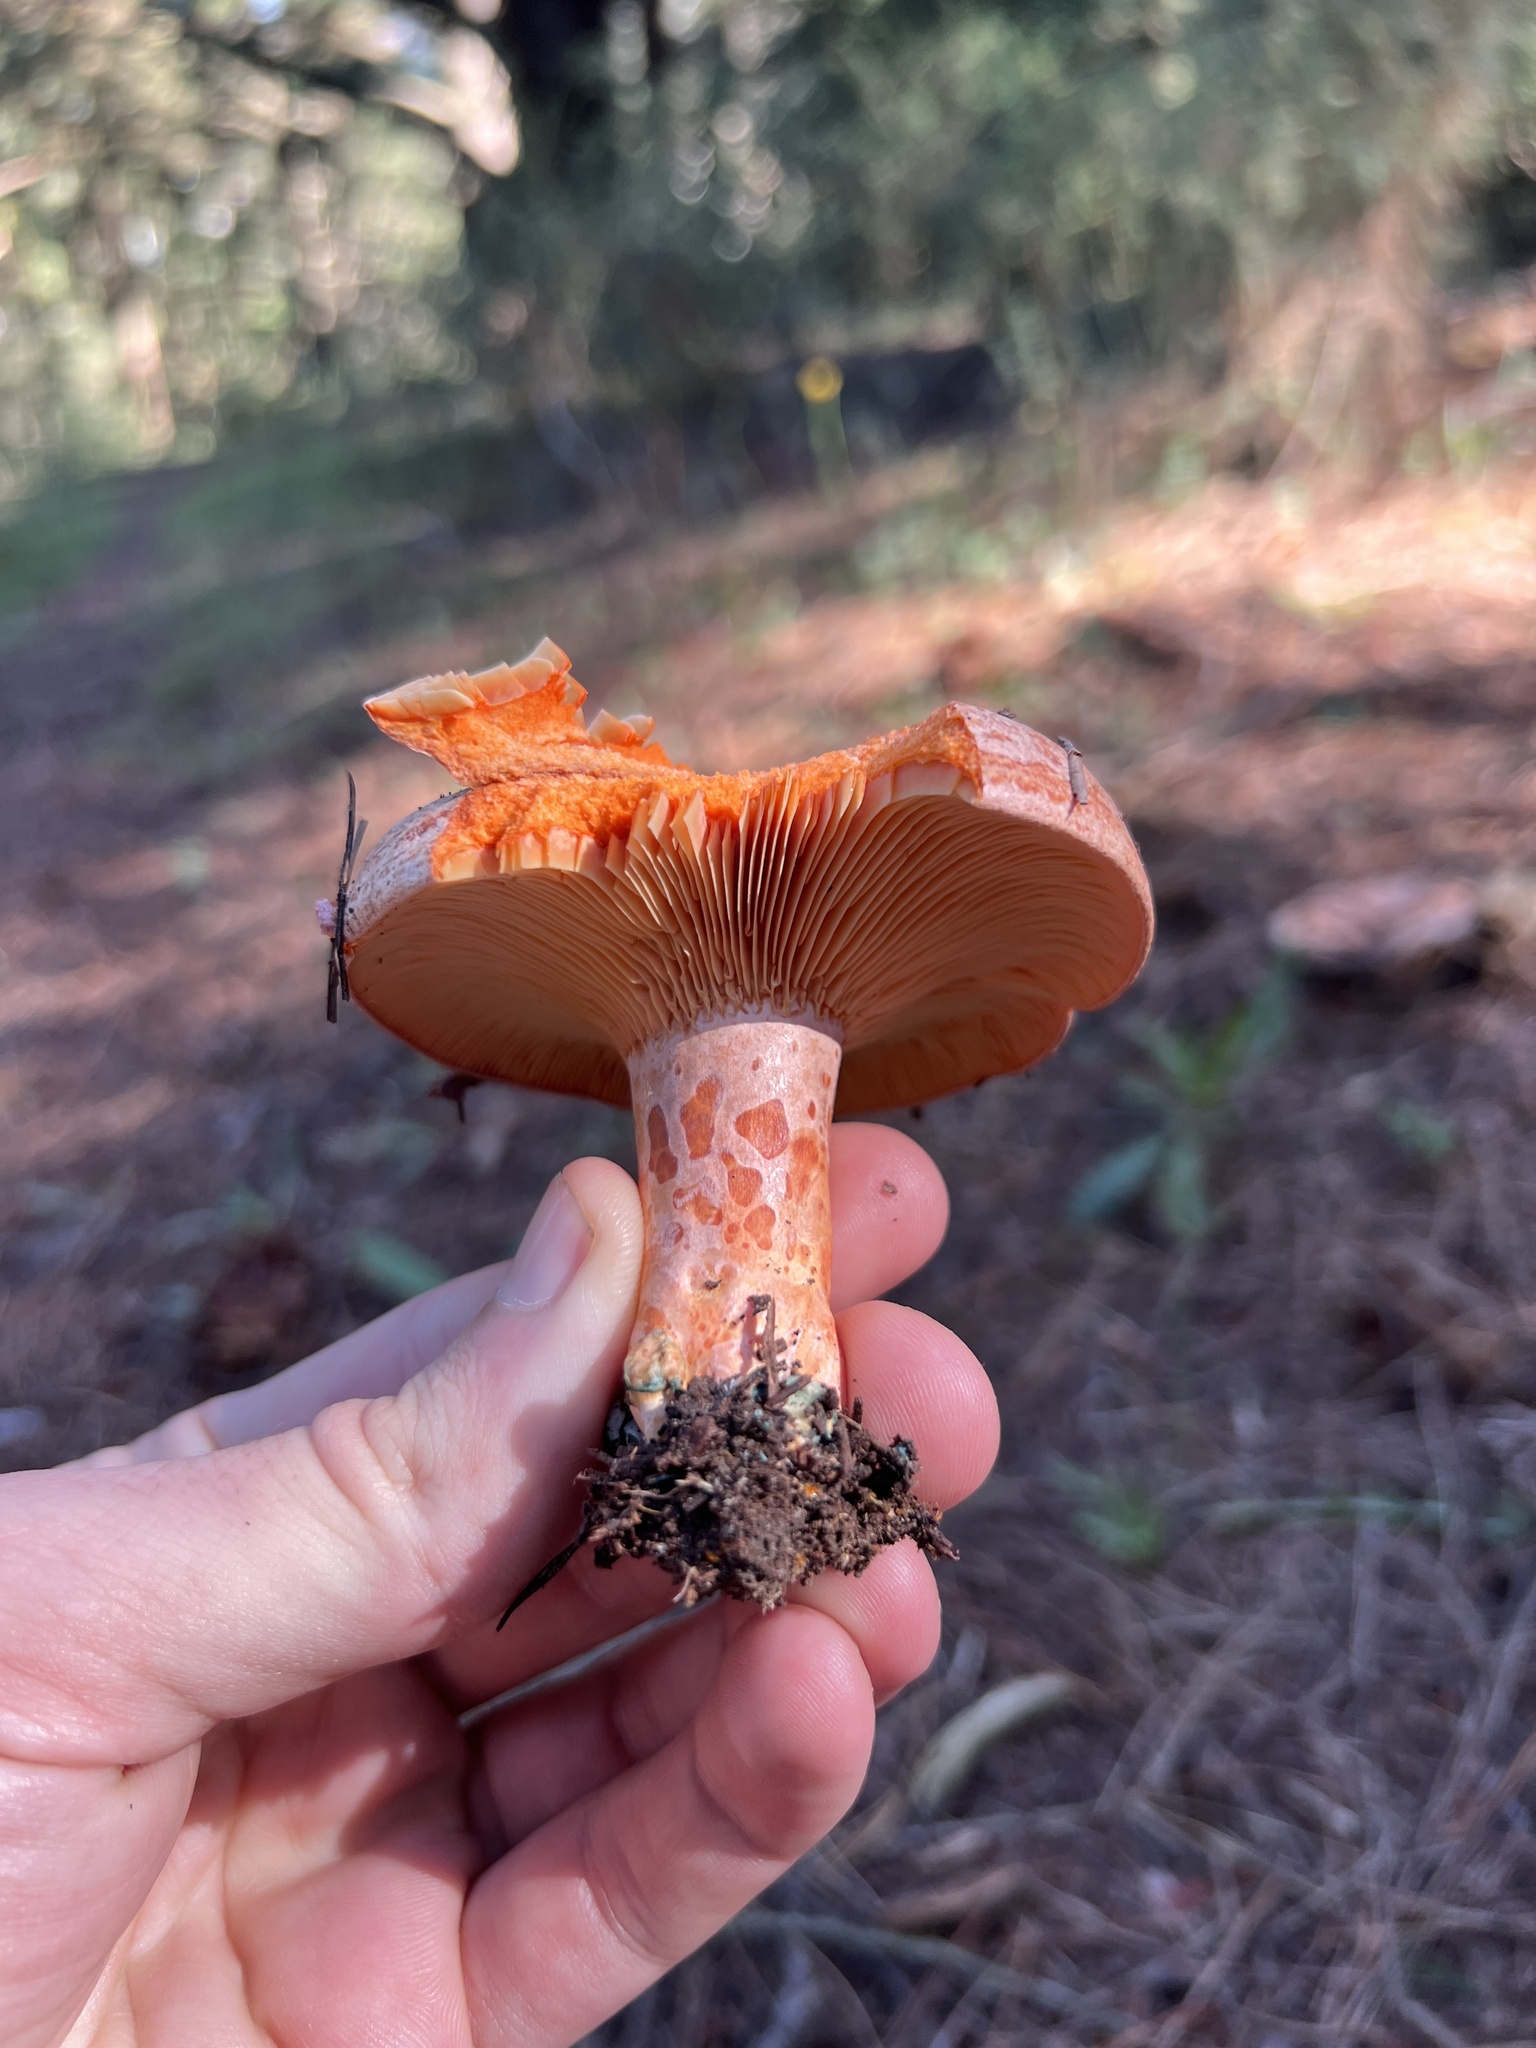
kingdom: Fungi
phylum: Basidiomycota
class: Agaricomycetes
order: Russulales
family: Russulaceae
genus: Lactarius
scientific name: Lactarius deliciosus
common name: Saffron milk-cap
